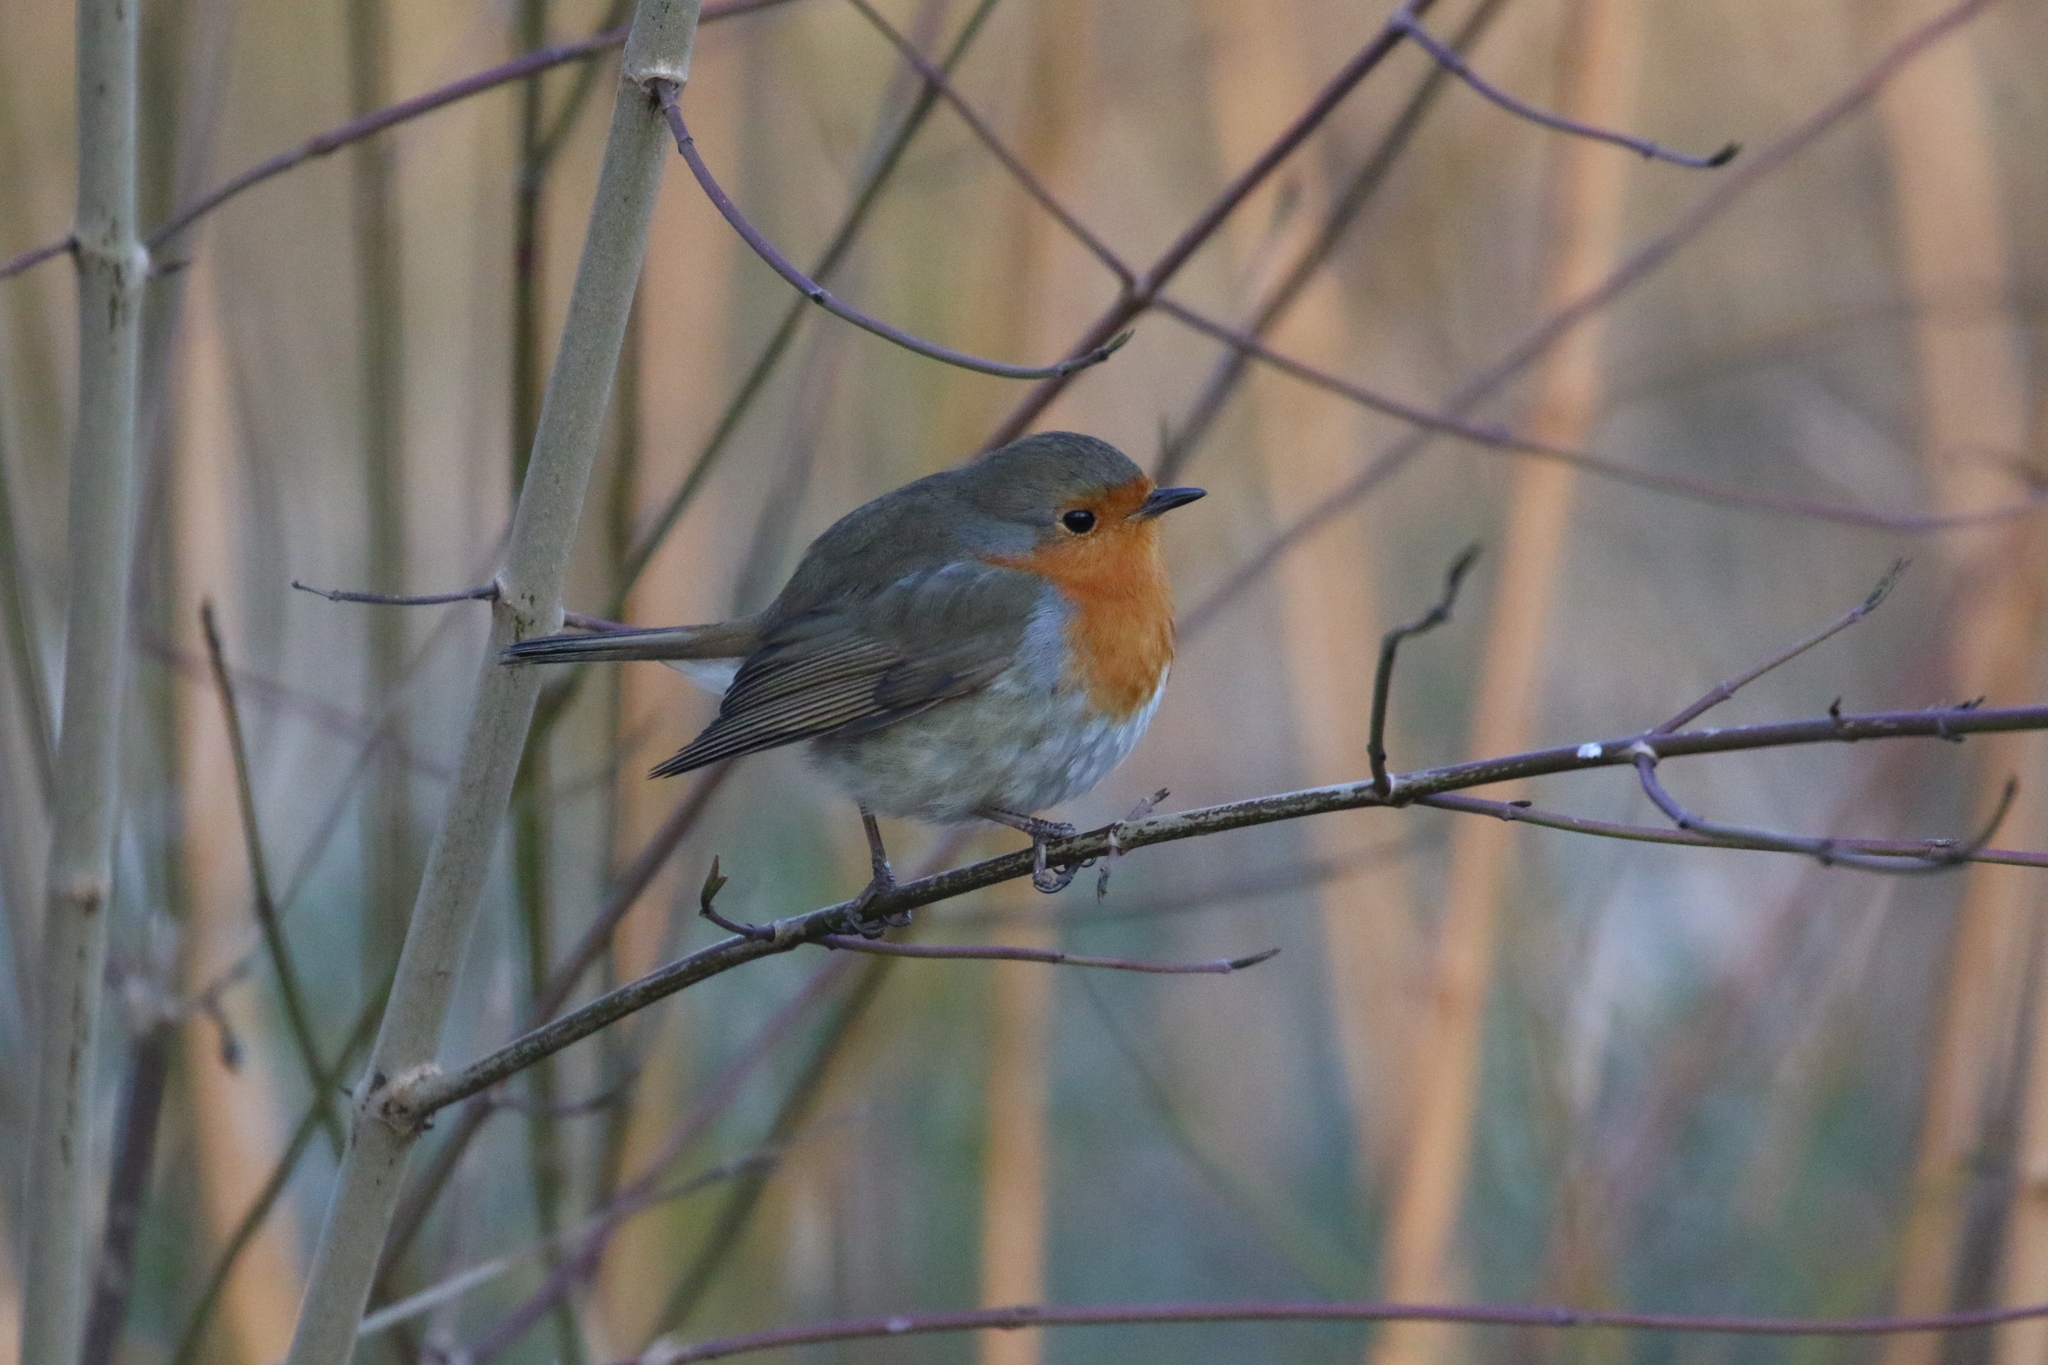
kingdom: Animalia
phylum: Chordata
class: Aves
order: Passeriformes
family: Muscicapidae
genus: Erithacus
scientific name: Erithacus rubecula
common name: European robin
